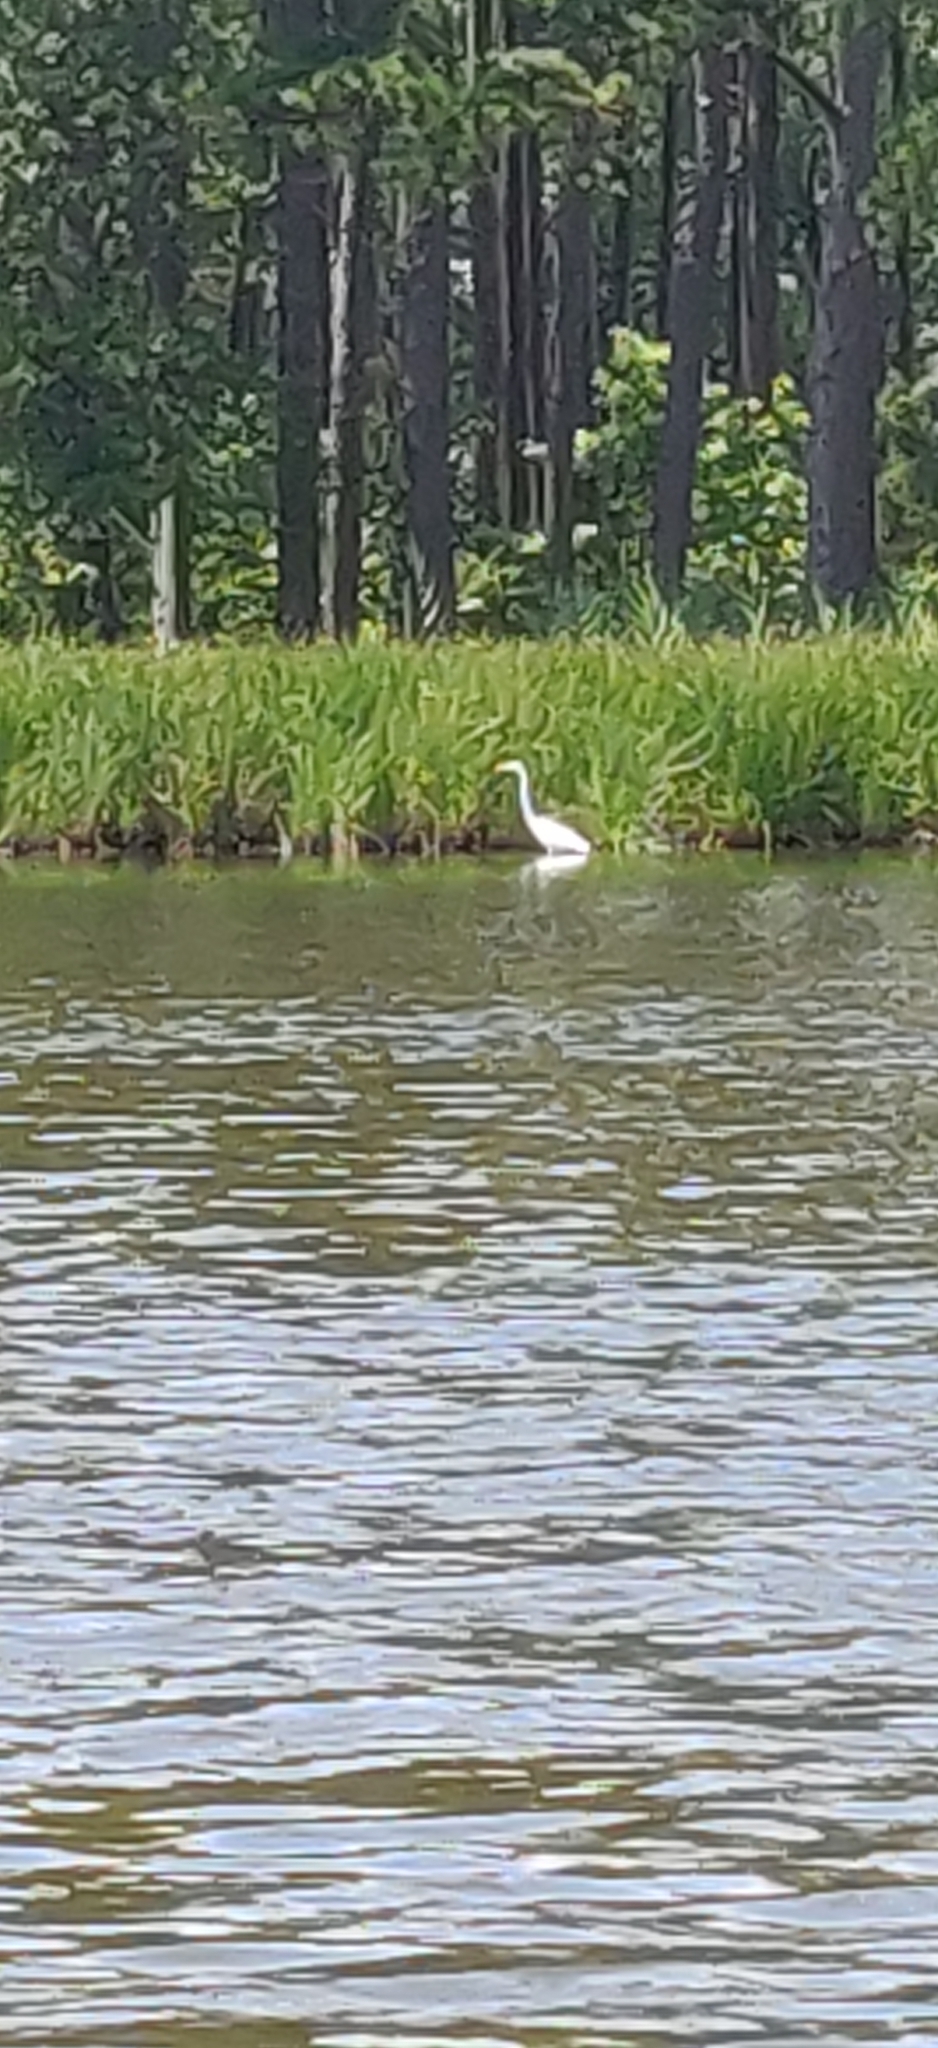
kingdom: Animalia
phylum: Chordata
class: Aves
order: Pelecaniformes
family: Ardeidae
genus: Ardea
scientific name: Ardea alba
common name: Great egret
